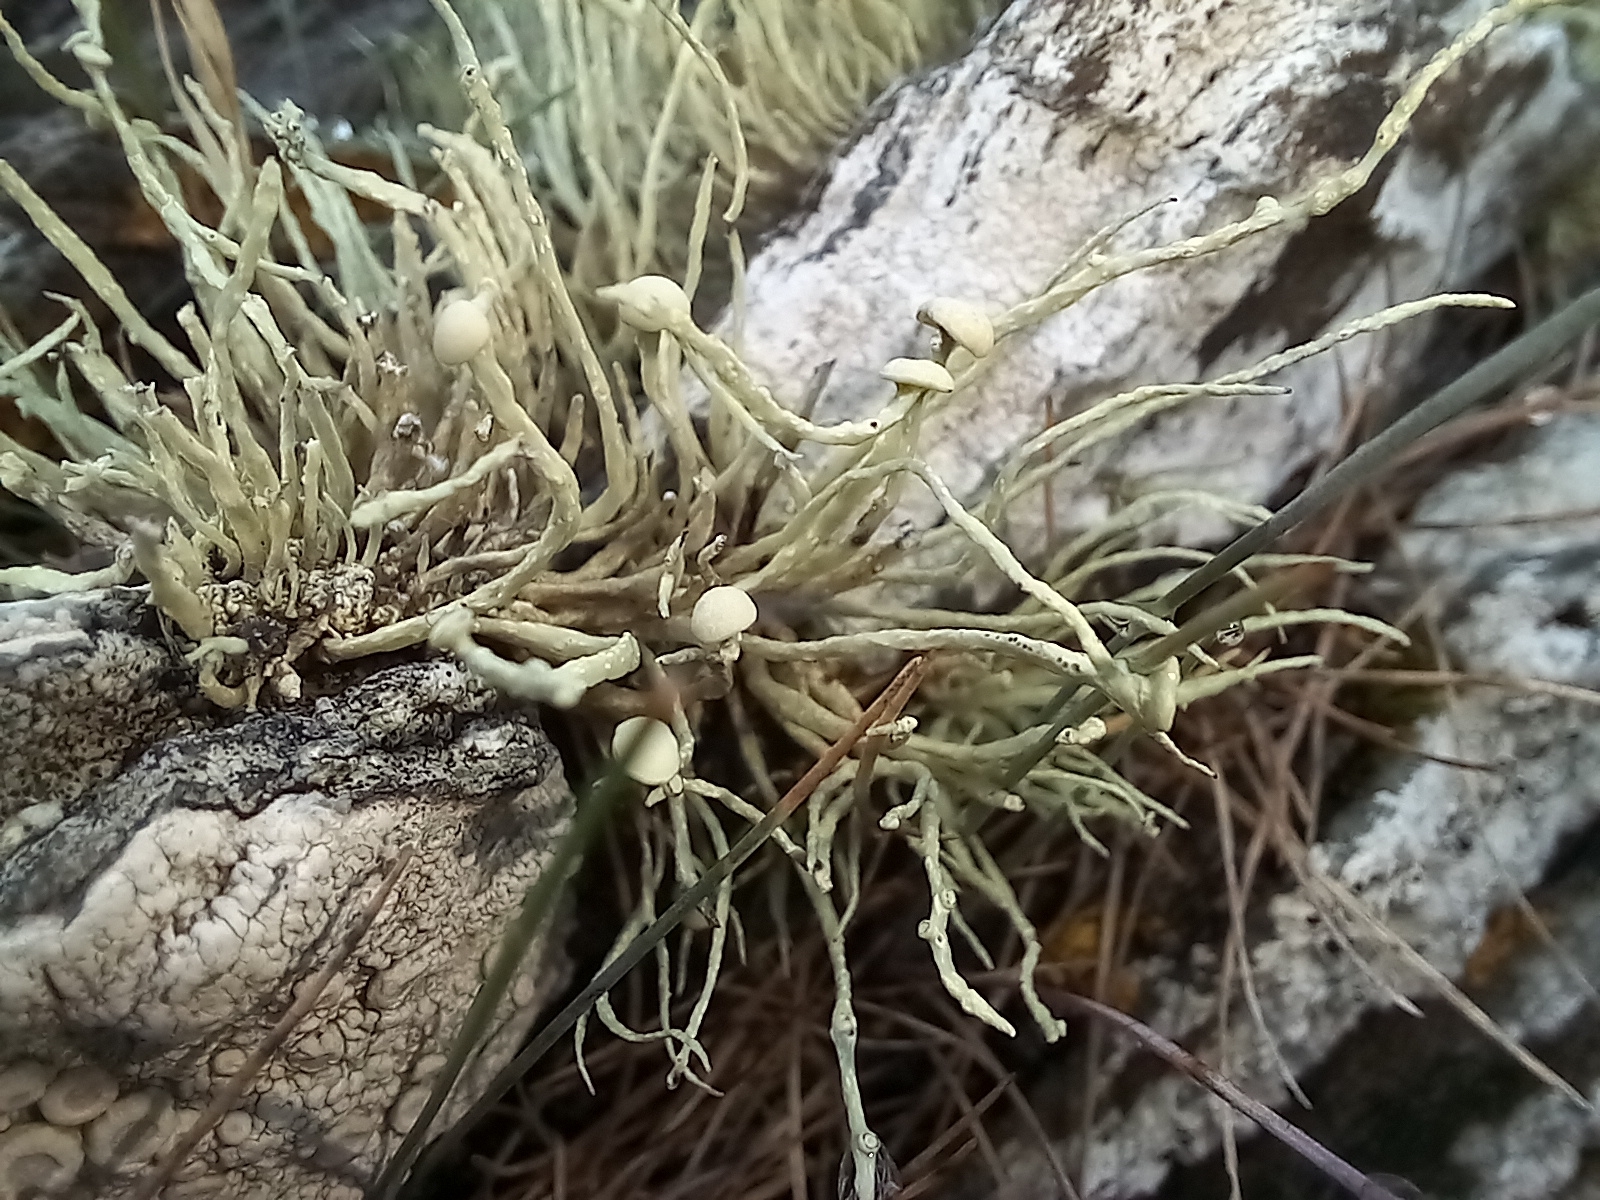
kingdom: Fungi
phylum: Ascomycota
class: Lecanoromycetes
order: Lecanorales
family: Ramalinaceae
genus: Ramalina
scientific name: Ramalina cuspidata
